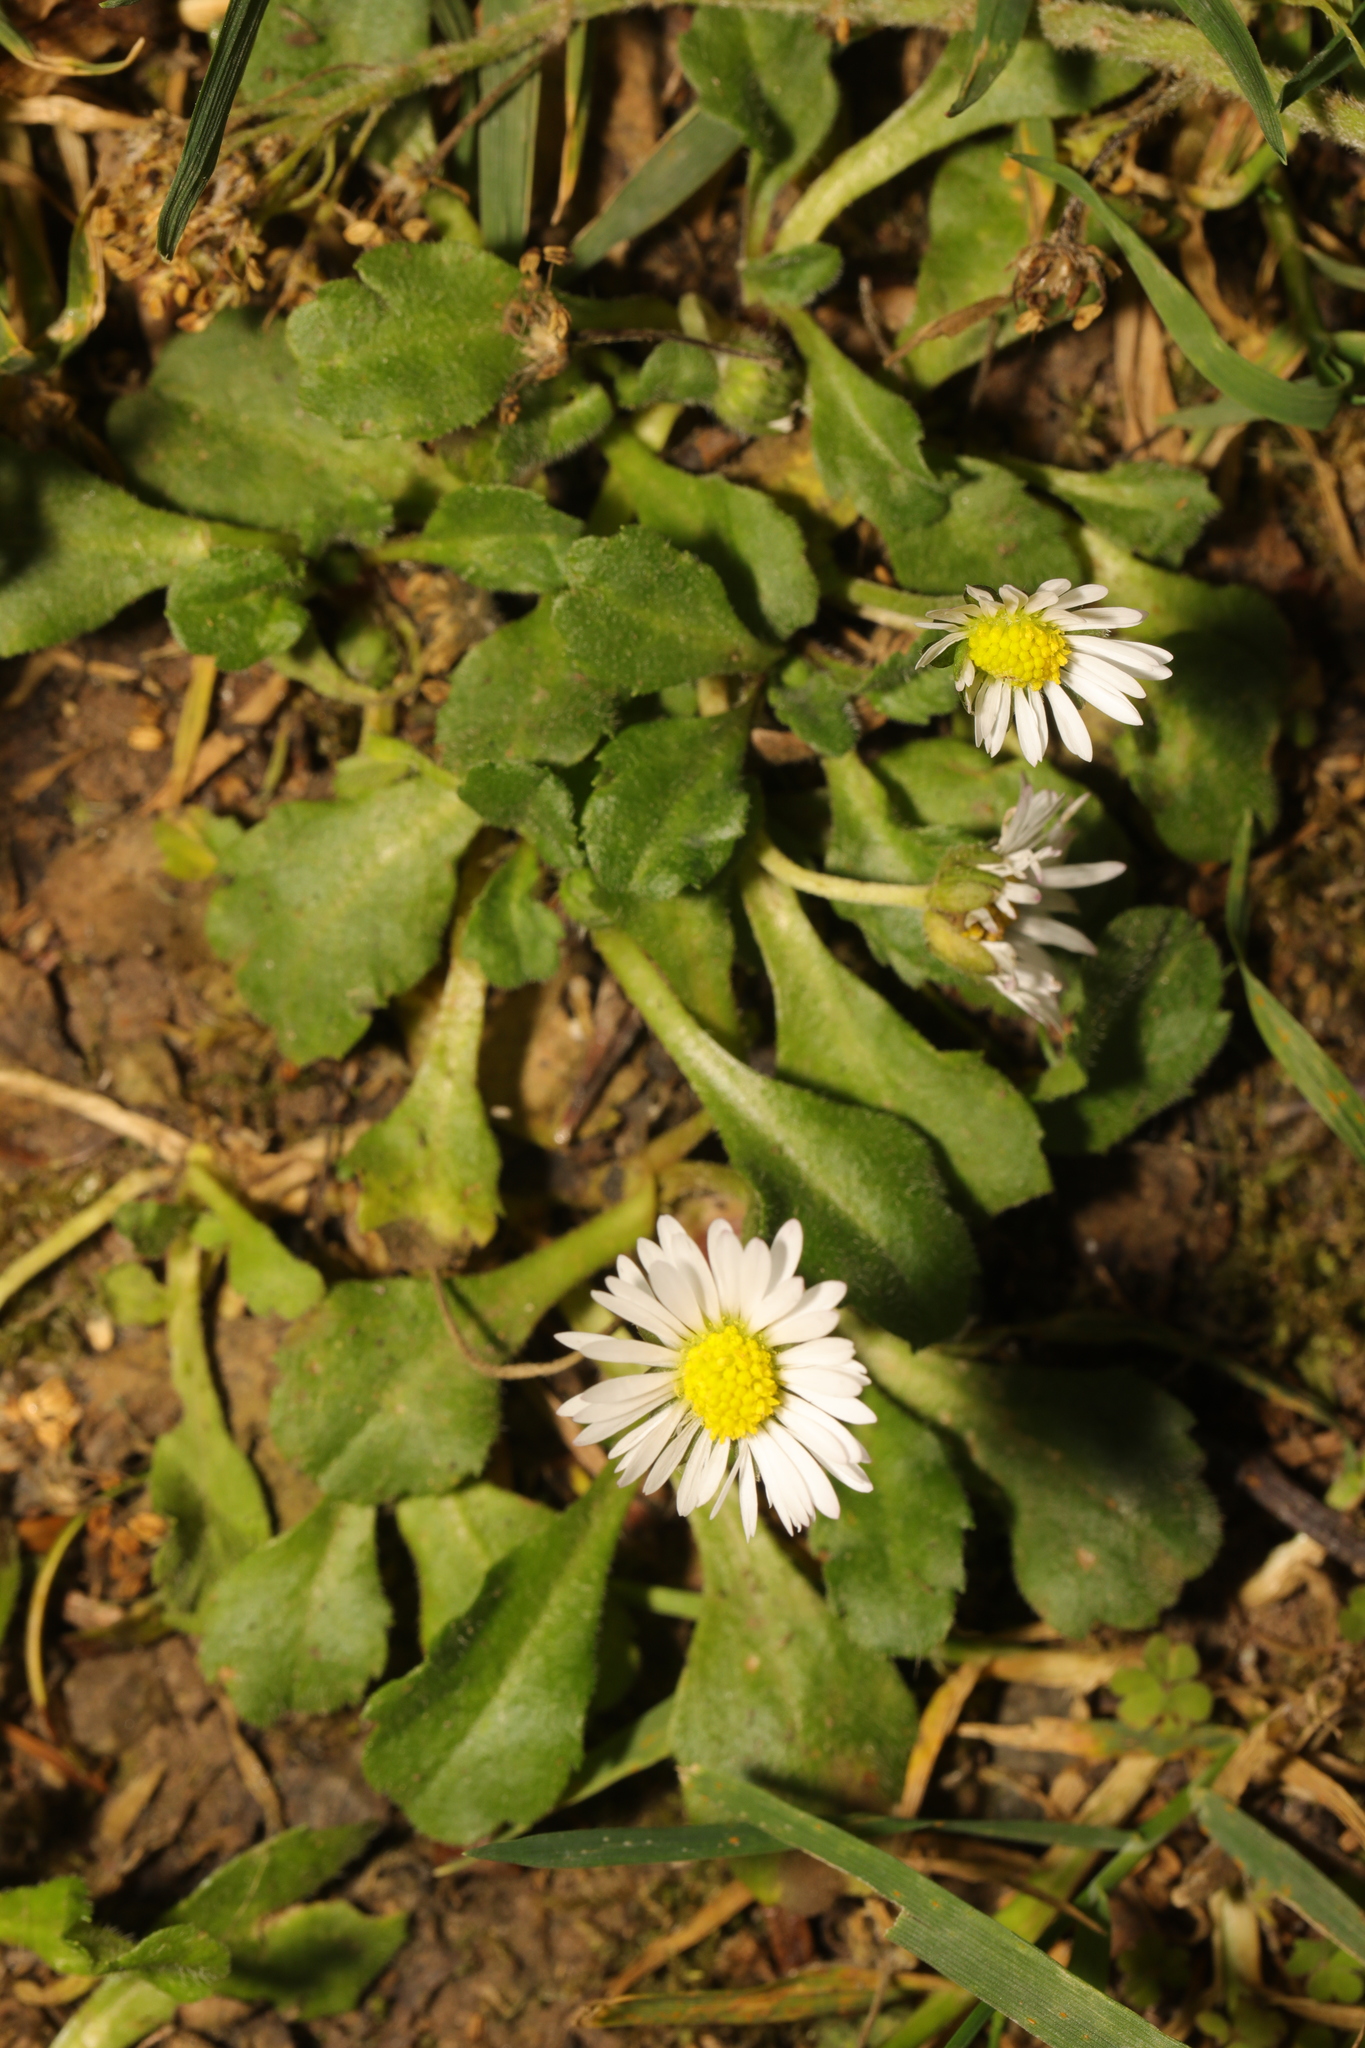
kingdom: Plantae
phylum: Tracheophyta
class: Magnoliopsida
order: Asterales
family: Asteraceae
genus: Bellis
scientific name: Bellis perennis
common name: Lawndaisy
